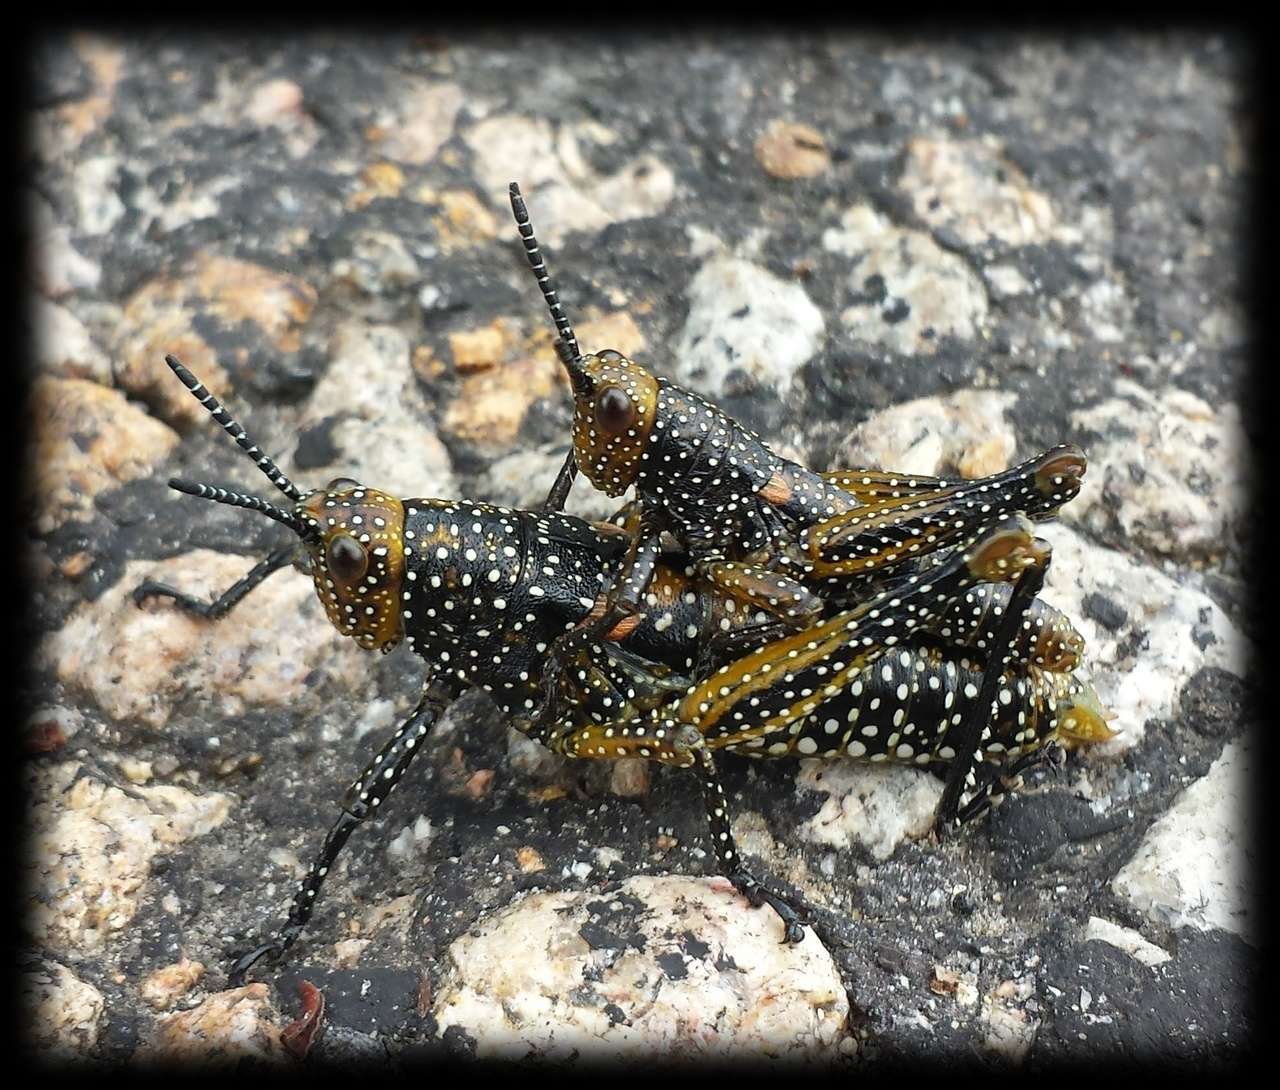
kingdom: Animalia
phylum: Arthropoda
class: Insecta
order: Orthoptera
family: Pyrgomorphidae
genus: Yeelanna
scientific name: Yeelanna pavonina
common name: Colourful yeelana
